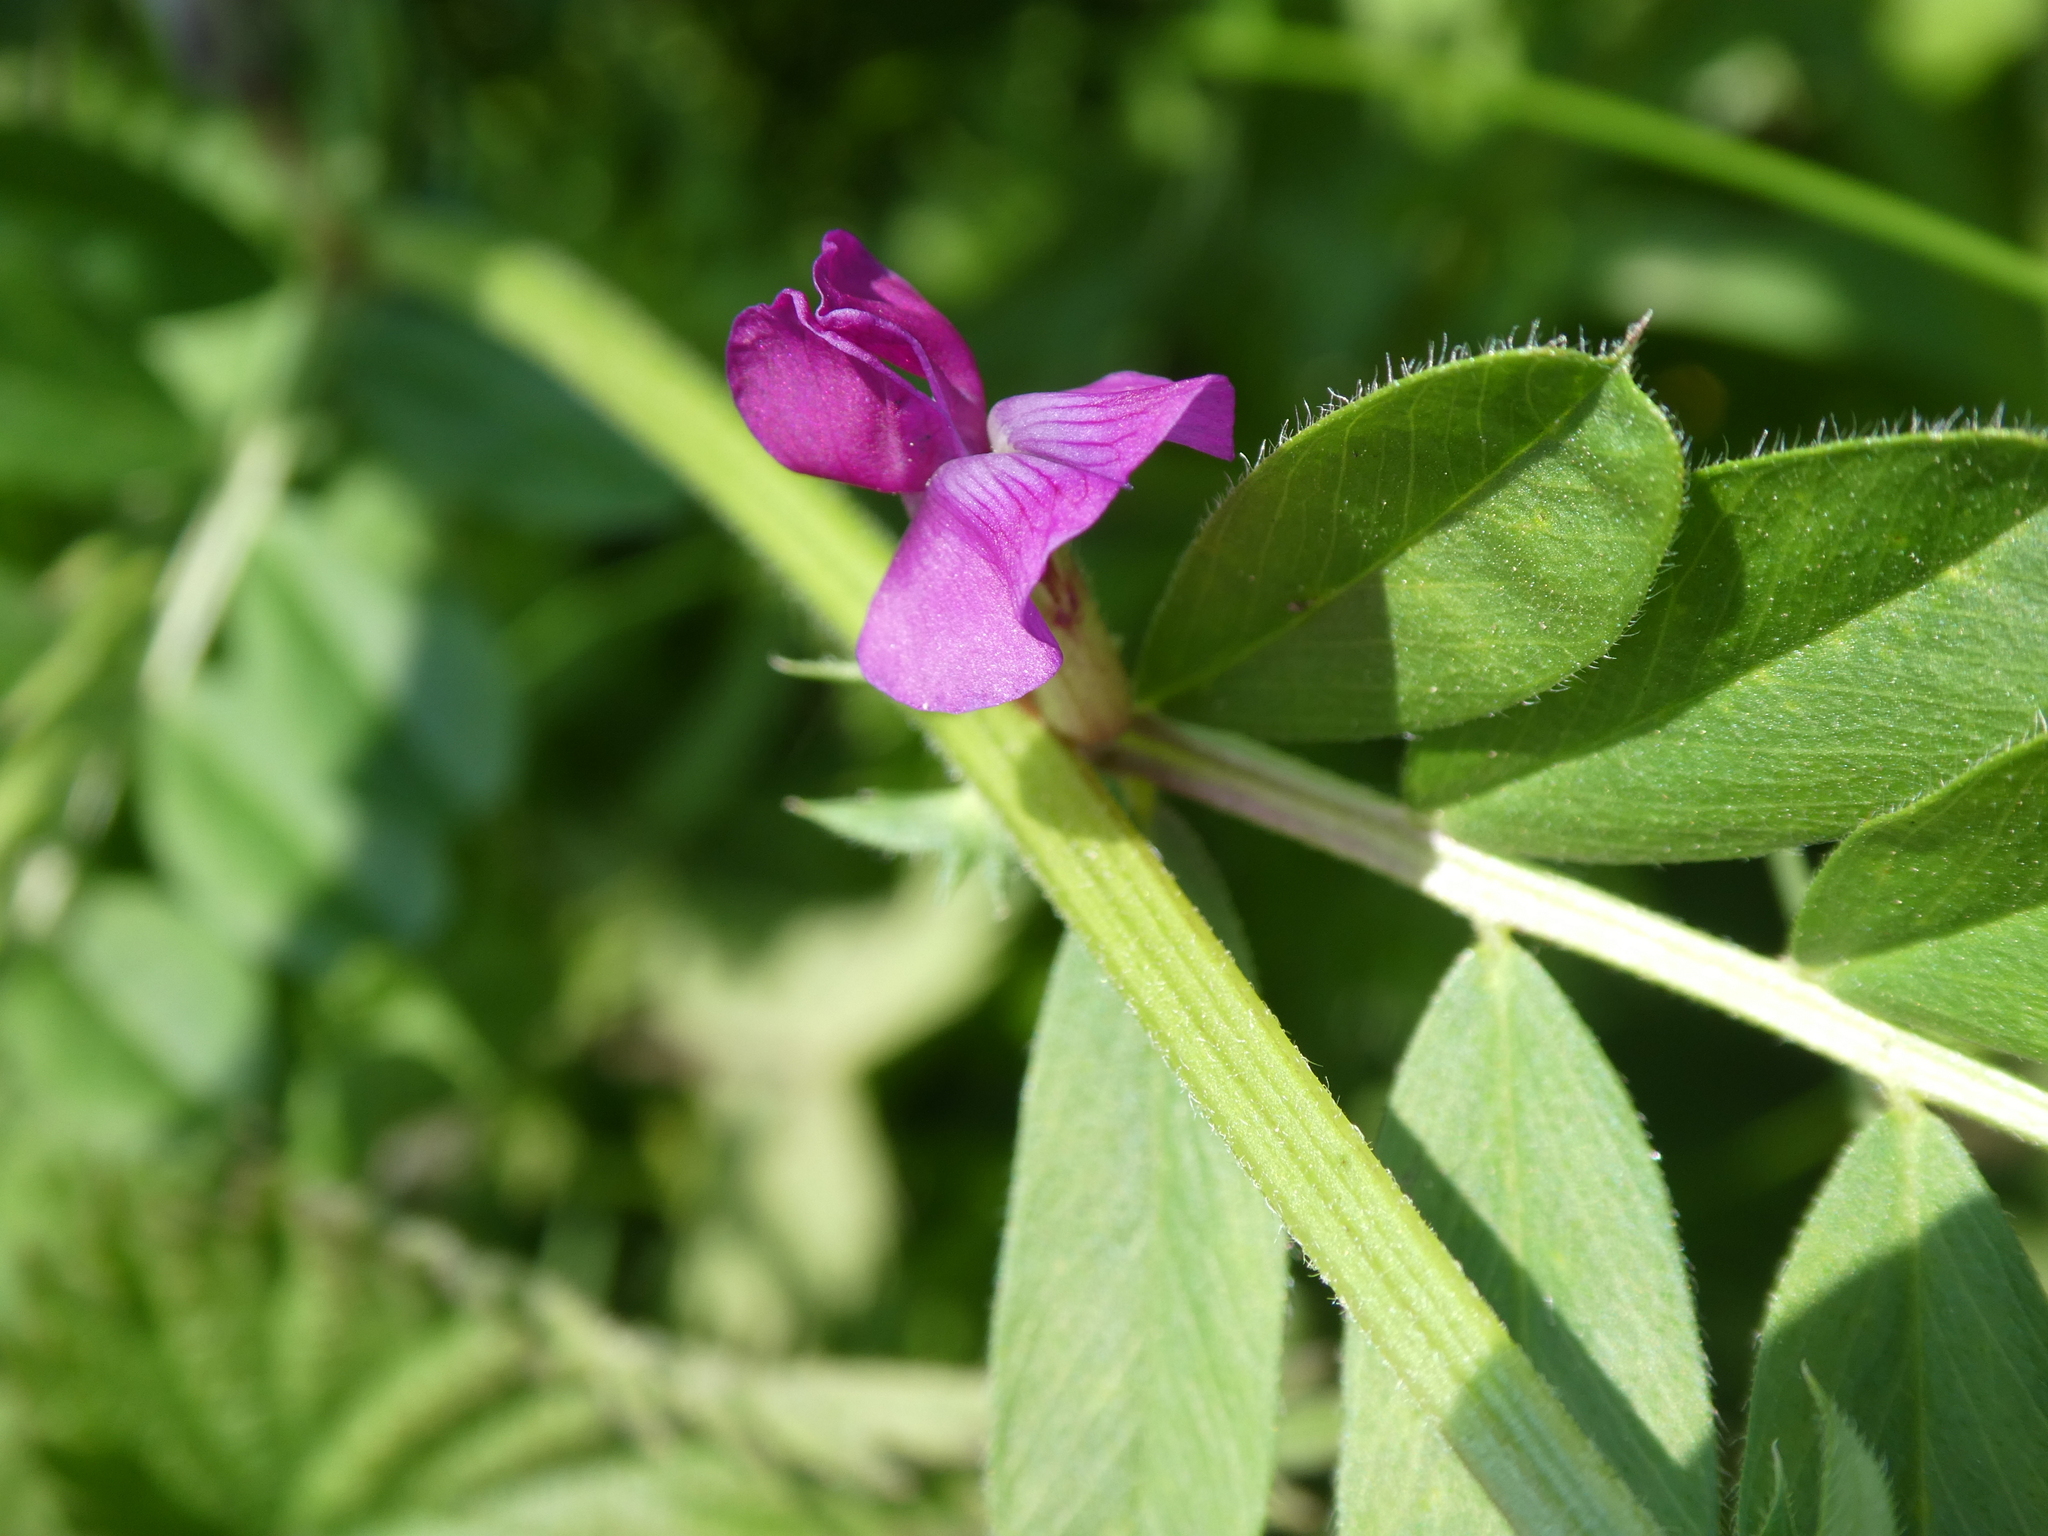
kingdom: Plantae
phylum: Tracheophyta
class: Magnoliopsida
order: Fabales
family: Fabaceae
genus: Vicia
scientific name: Vicia sativa
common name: Garden vetch
